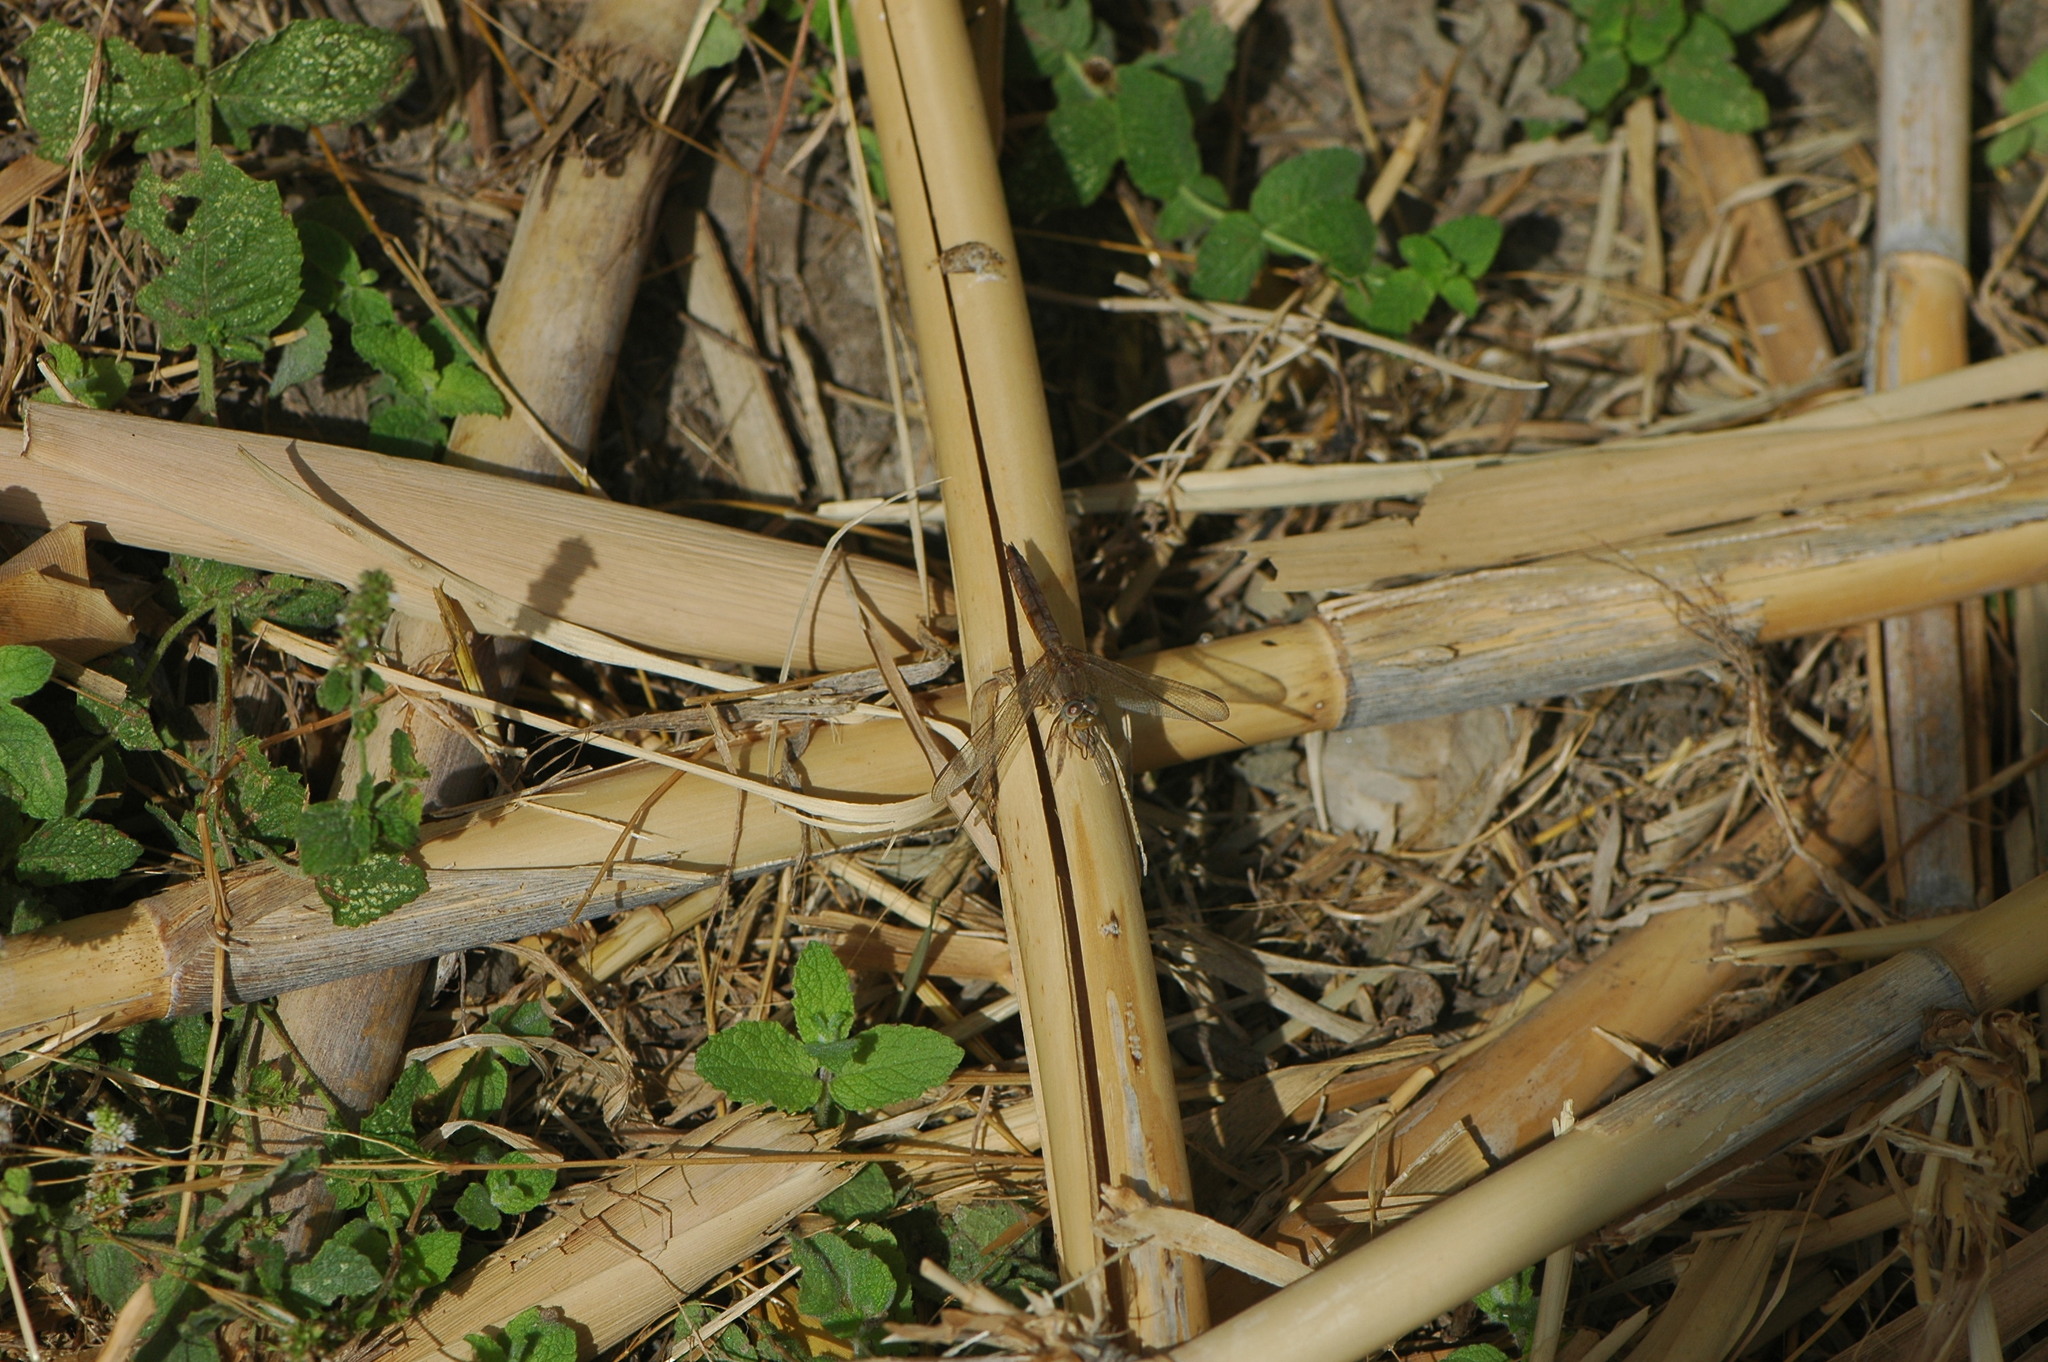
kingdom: Animalia
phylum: Arthropoda
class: Insecta
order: Odonata
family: Libellulidae
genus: Crocothemis
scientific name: Crocothemis erythraea
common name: Scarlet dragonfly
